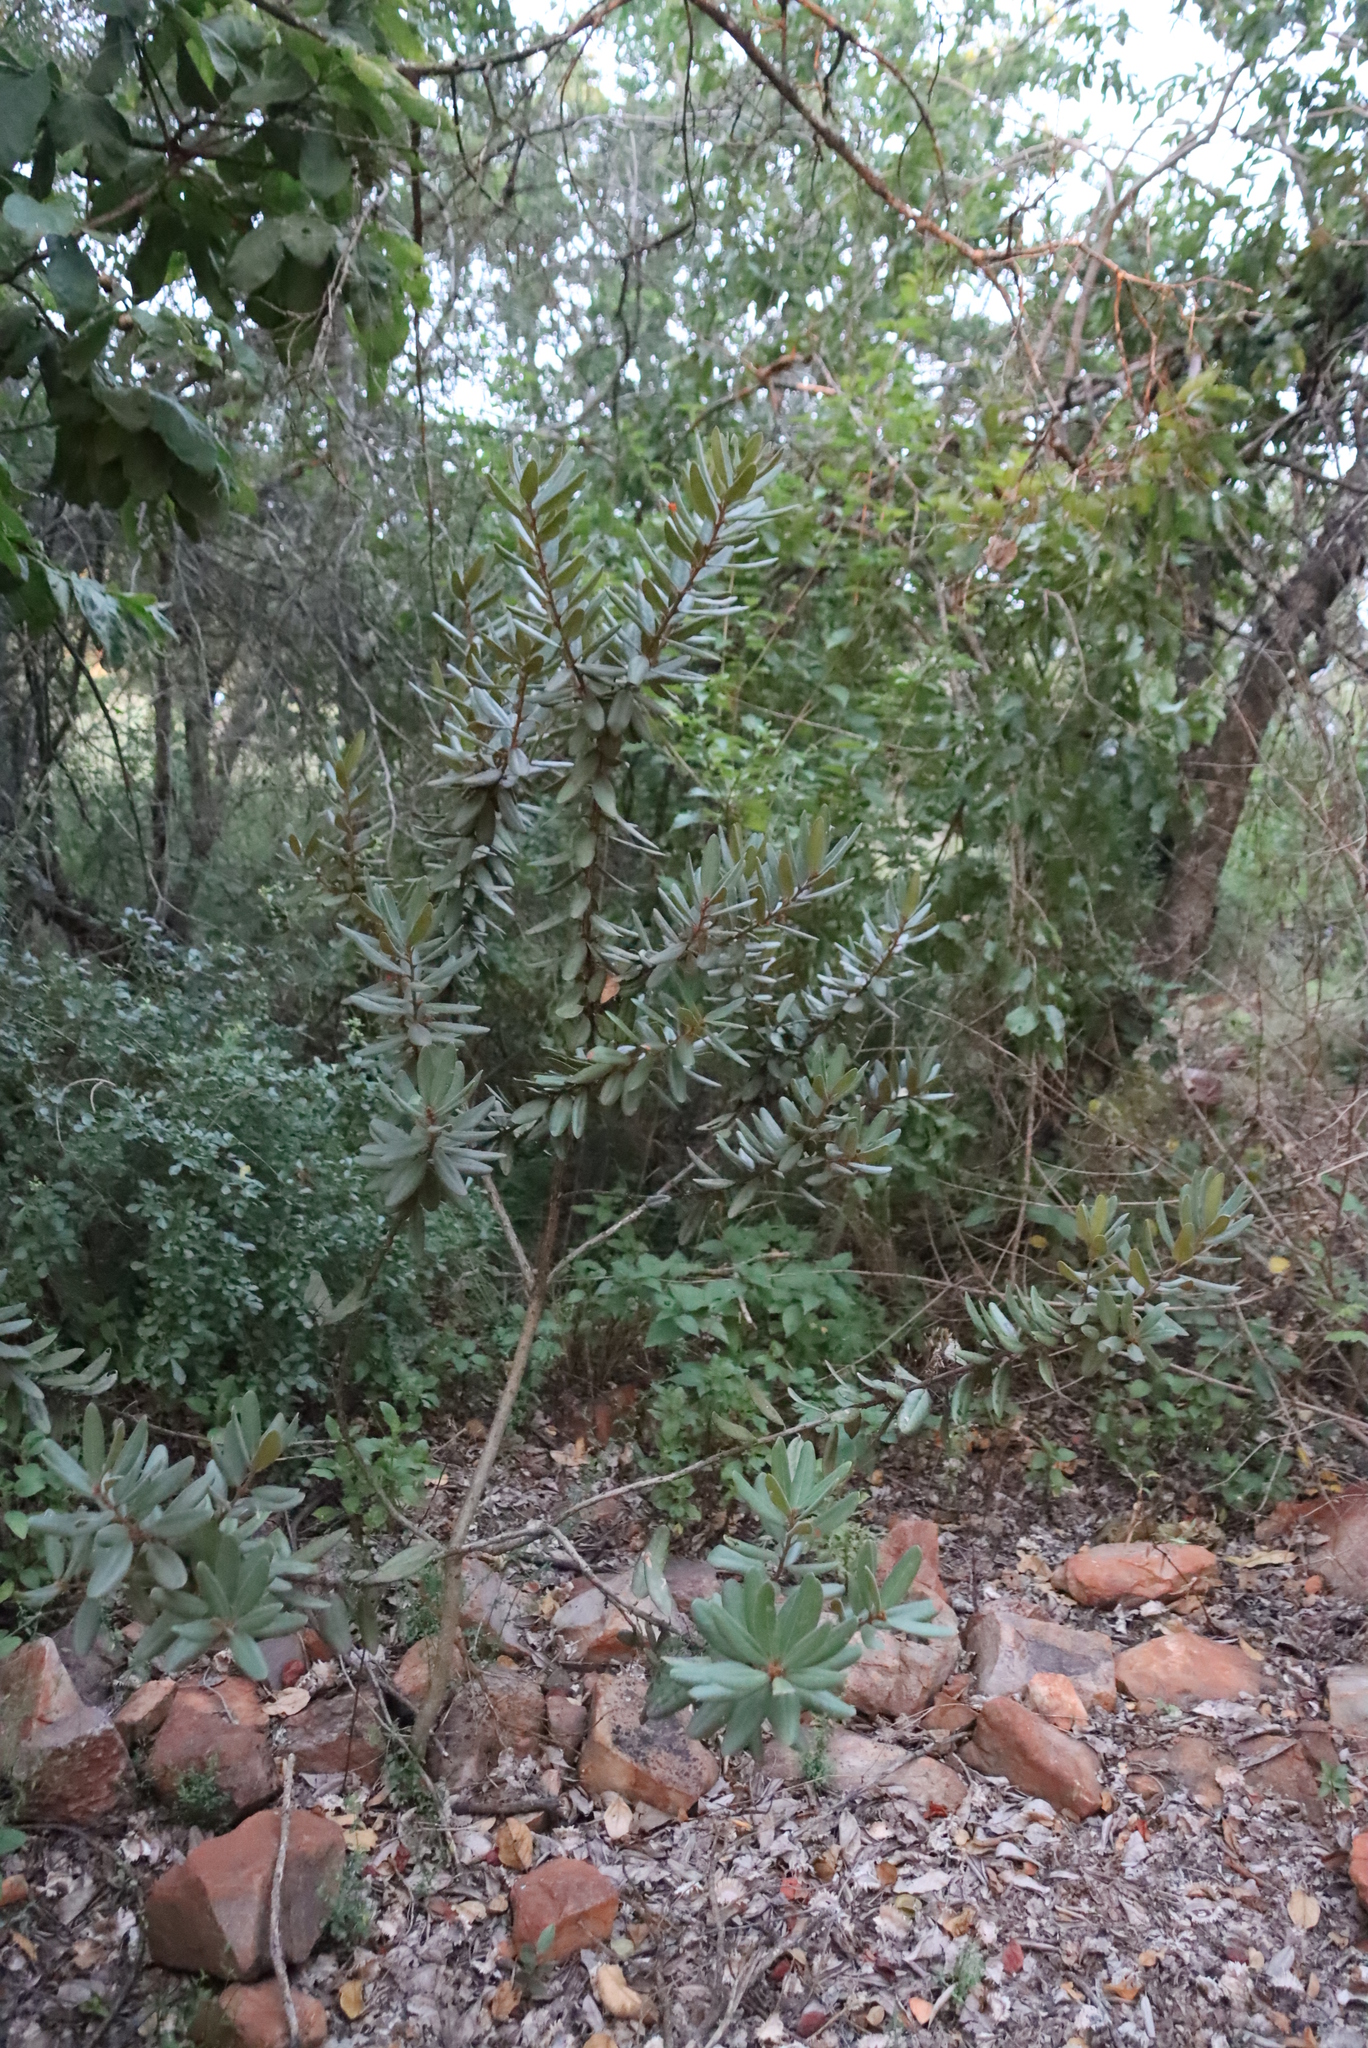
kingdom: Plantae
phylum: Tracheophyta
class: Magnoliopsida
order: Ericales
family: Ebenaceae
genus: Euclea
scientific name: Euclea natalensis
